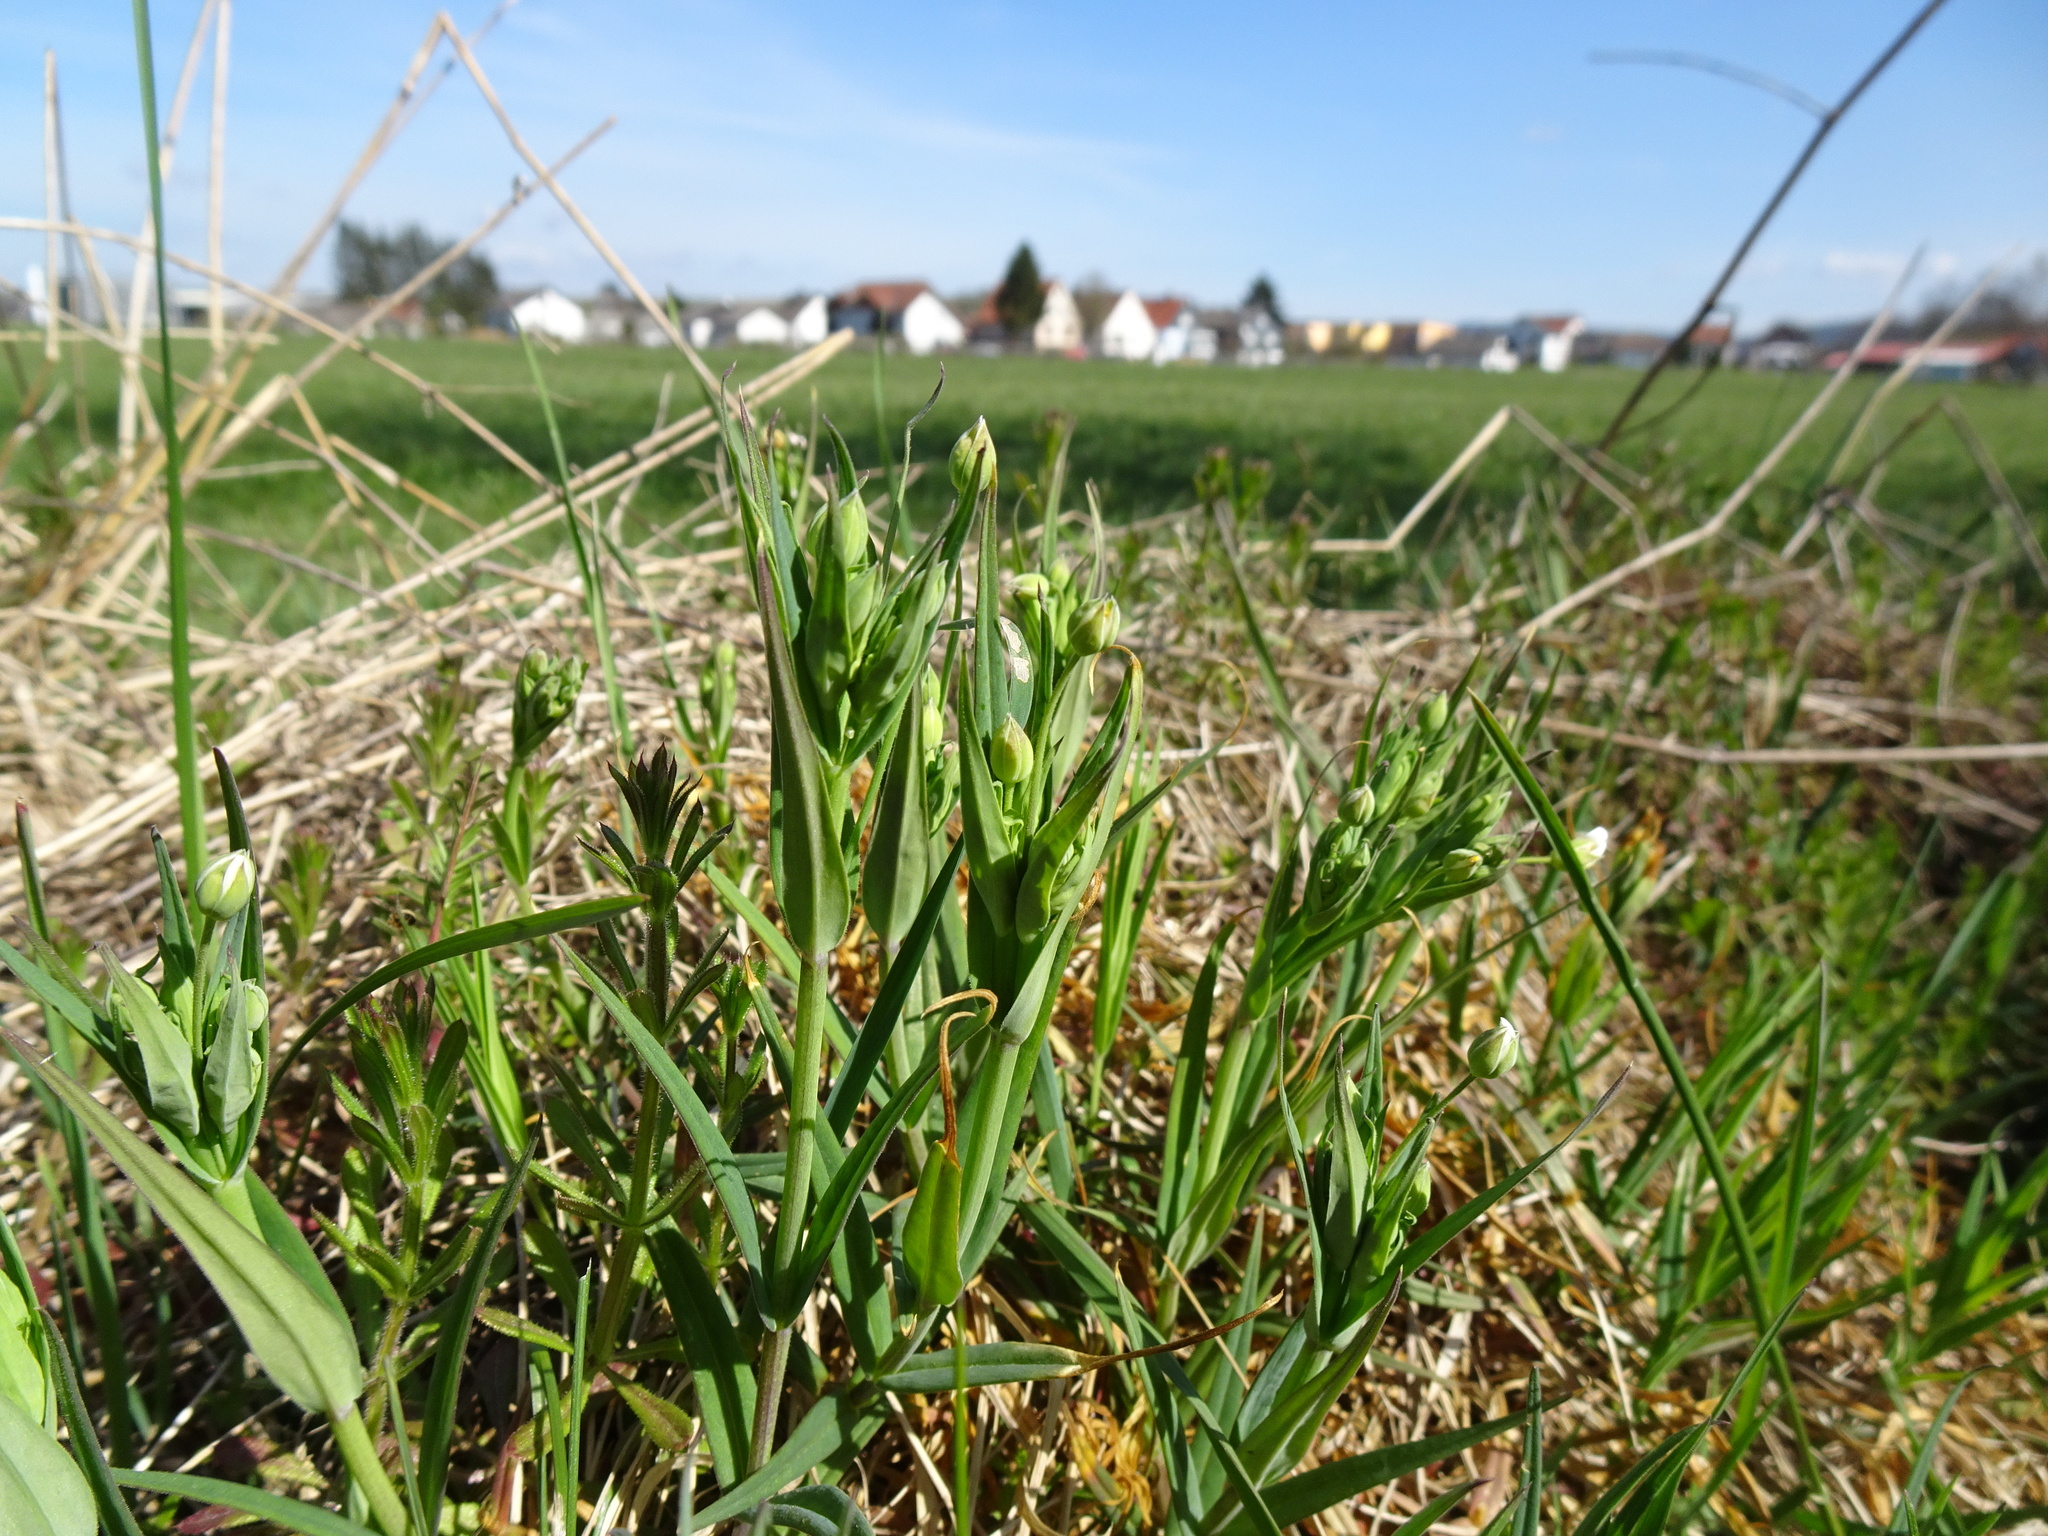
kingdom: Plantae
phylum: Tracheophyta
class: Magnoliopsida
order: Caryophyllales
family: Caryophyllaceae
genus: Rabelera
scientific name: Rabelera holostea
